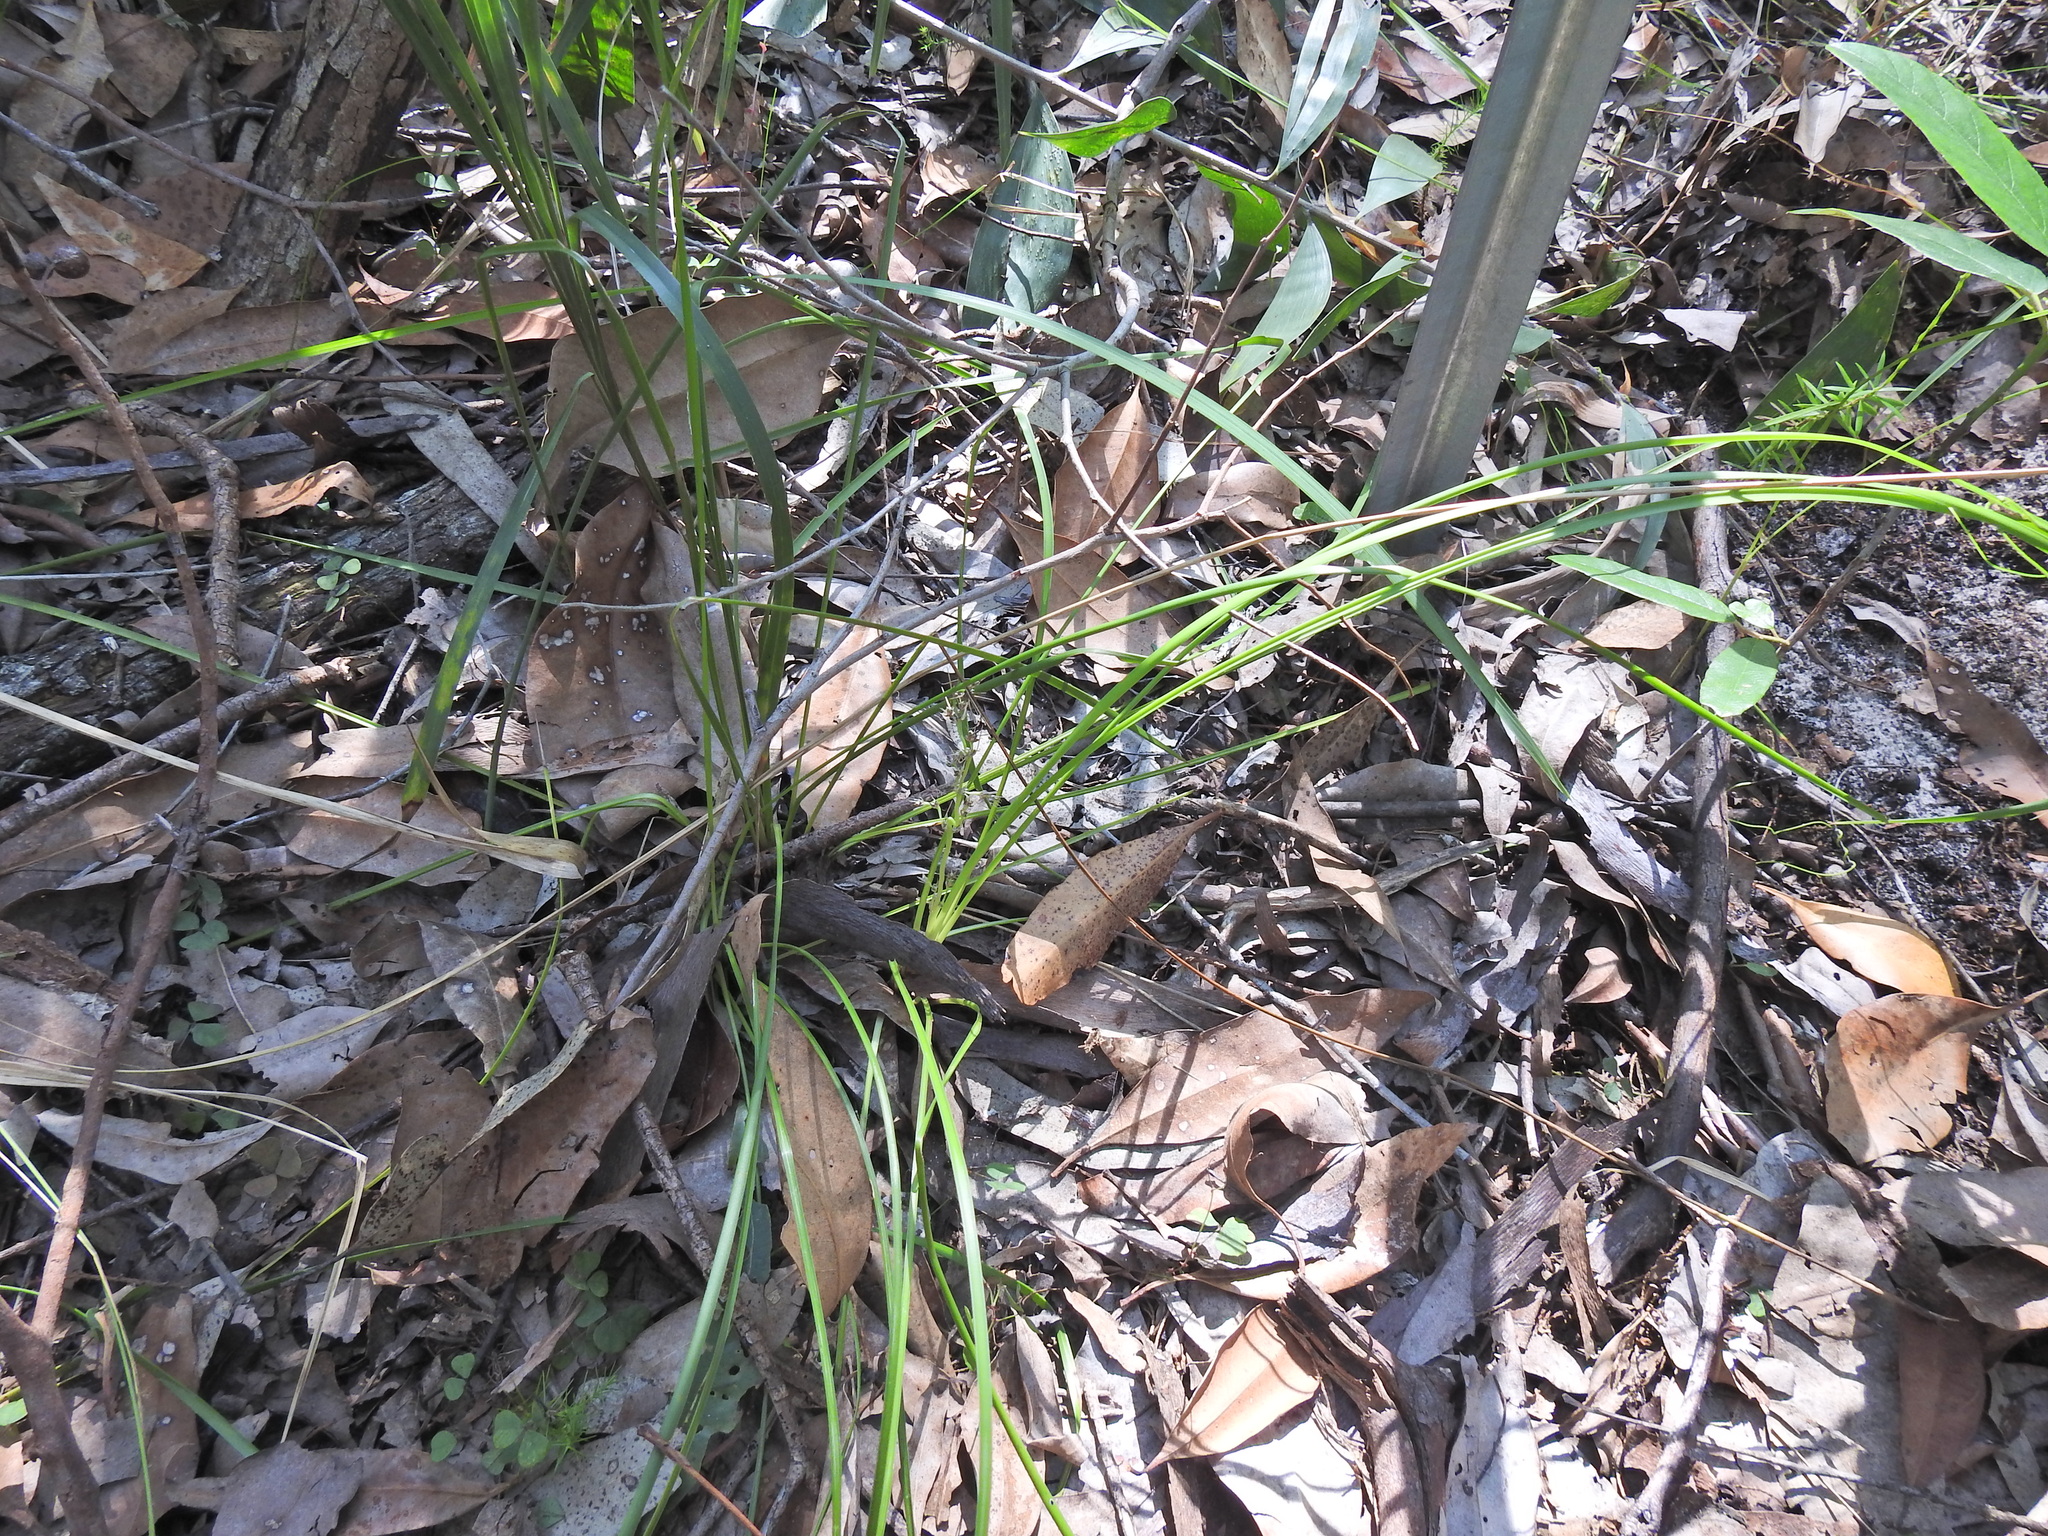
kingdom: Plantae
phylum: Tracheophyta
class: Liliopsida
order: Asparagales
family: Asparagaceae
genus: Lomandra
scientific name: Lomandra confertifolia
